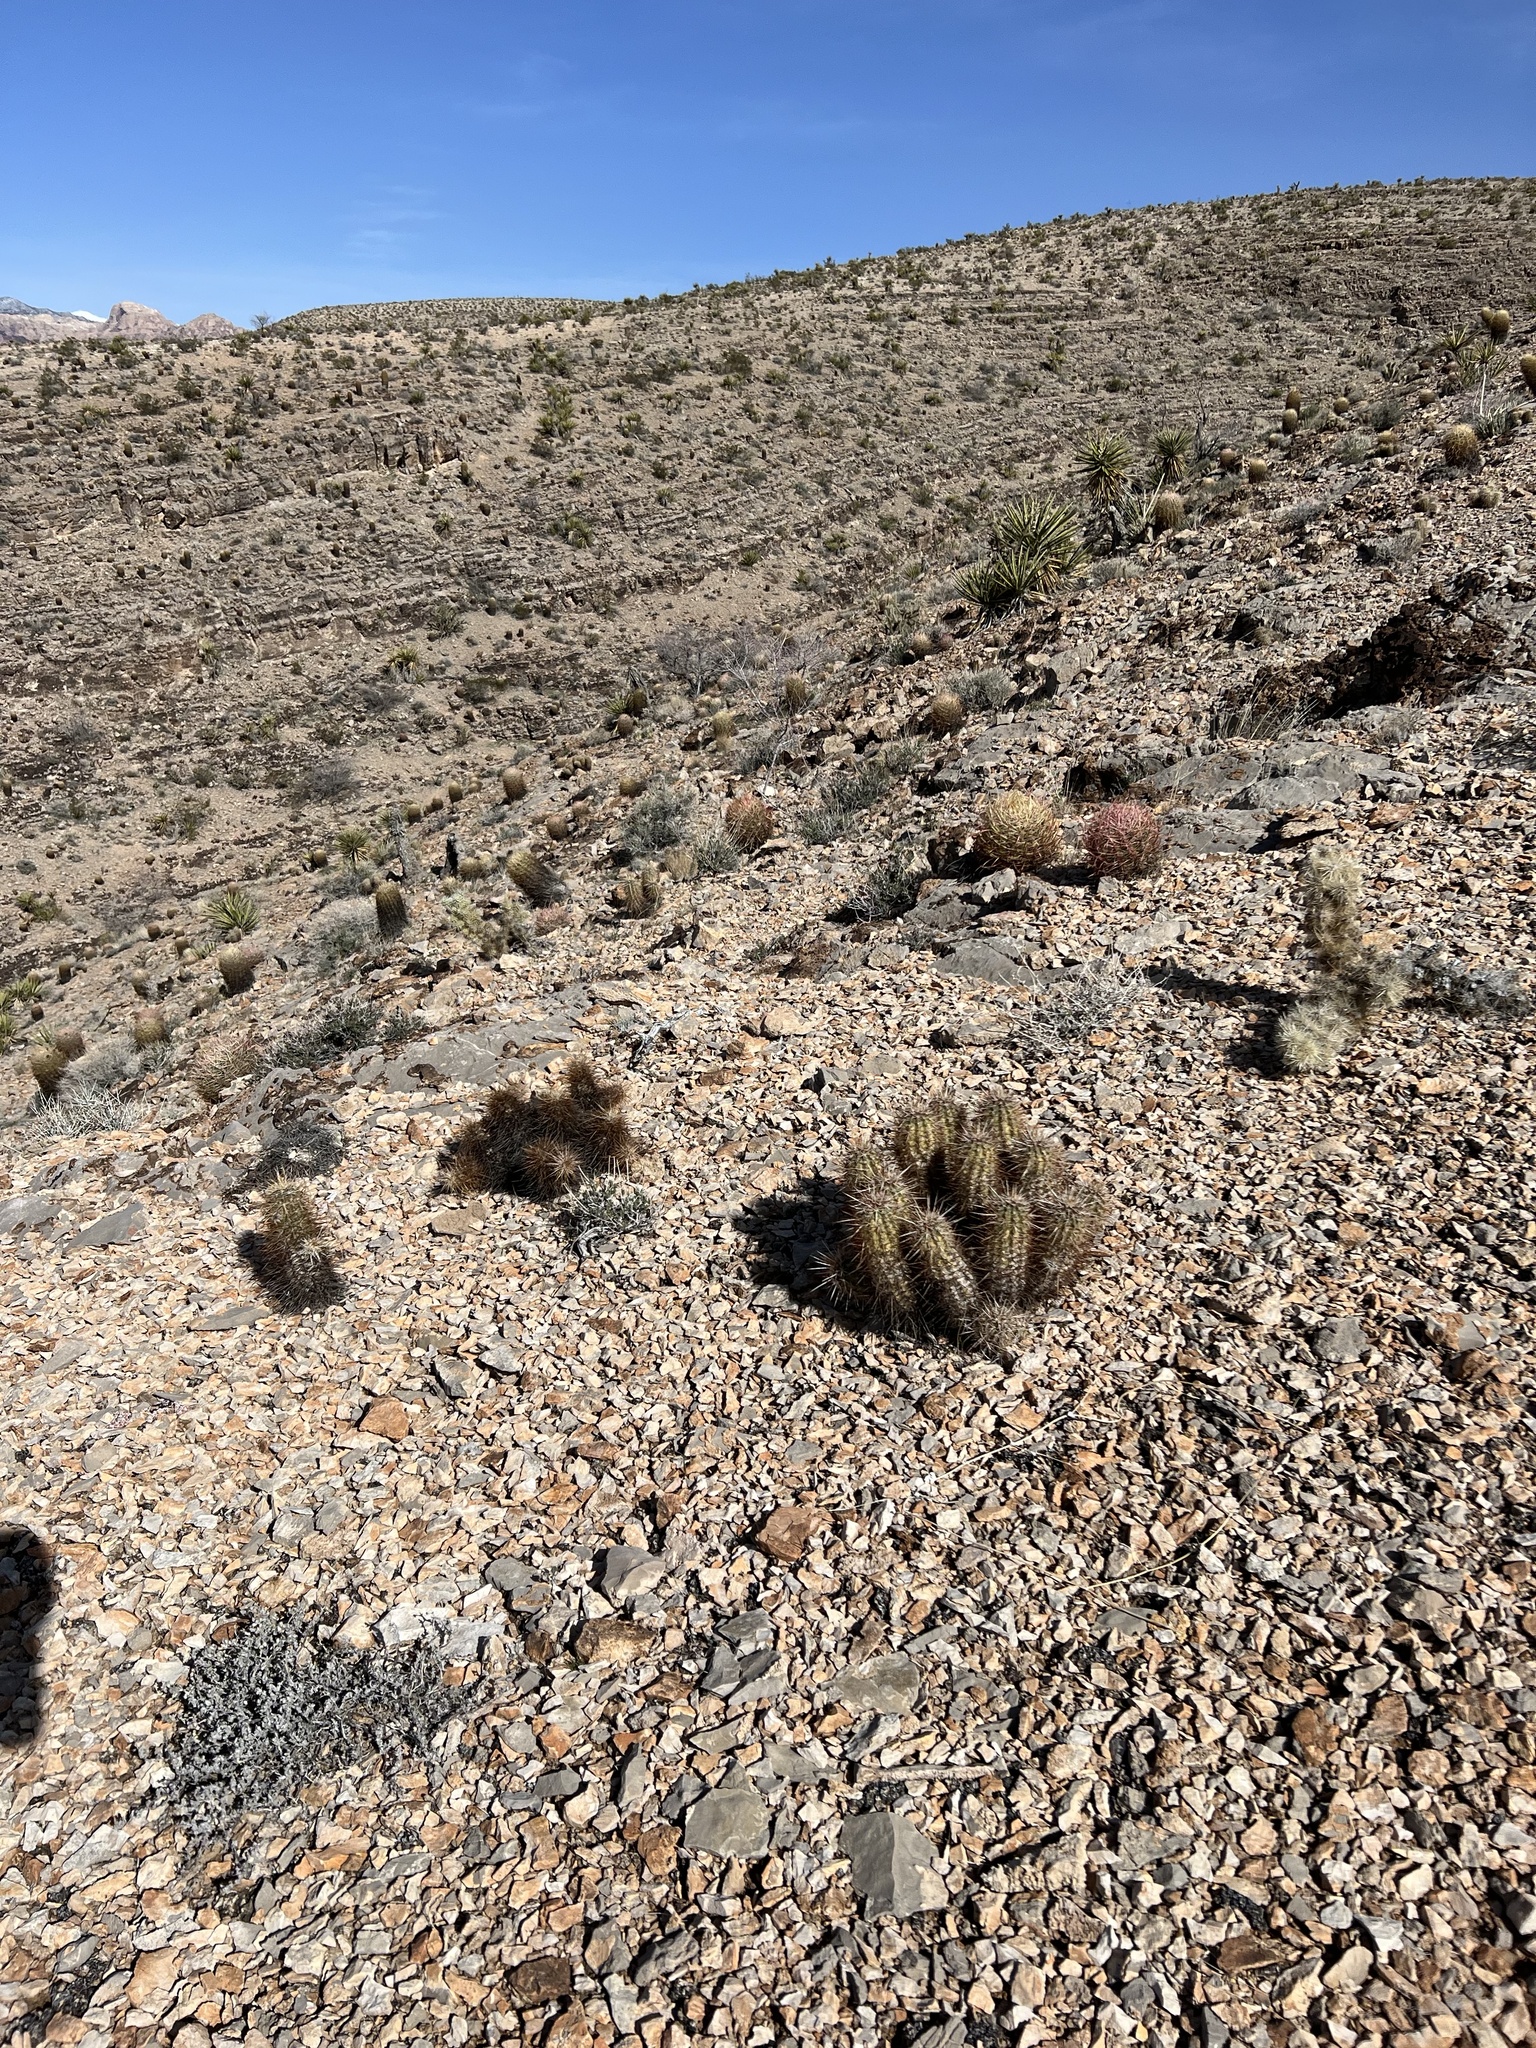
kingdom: Plantae
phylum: Tracheophyta
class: Magnoliopsida
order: Caryophyllales
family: Cactaceae
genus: Echinocereus
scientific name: Echinocereus engelmannii
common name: Engelmann's hedgehog cactus
